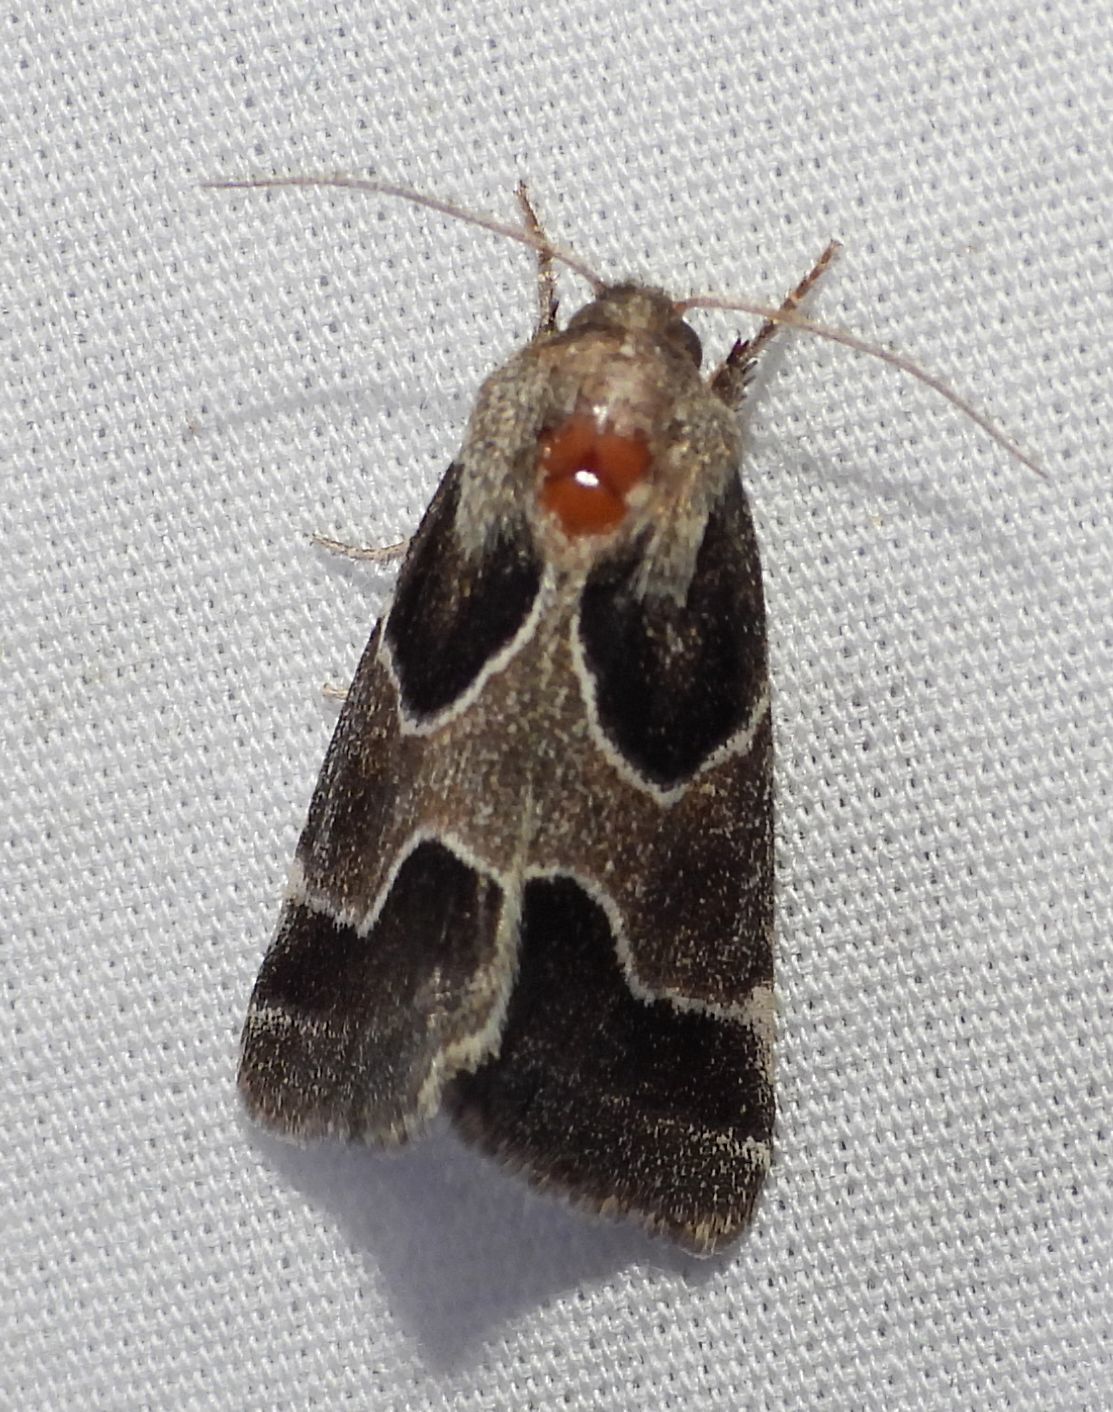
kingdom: Animalia
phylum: Arthropoda
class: Insecta
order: Lepidoptera
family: Noctuidae
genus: Schinia
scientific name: Schinia rivulosa
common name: Scarce meal-moth
